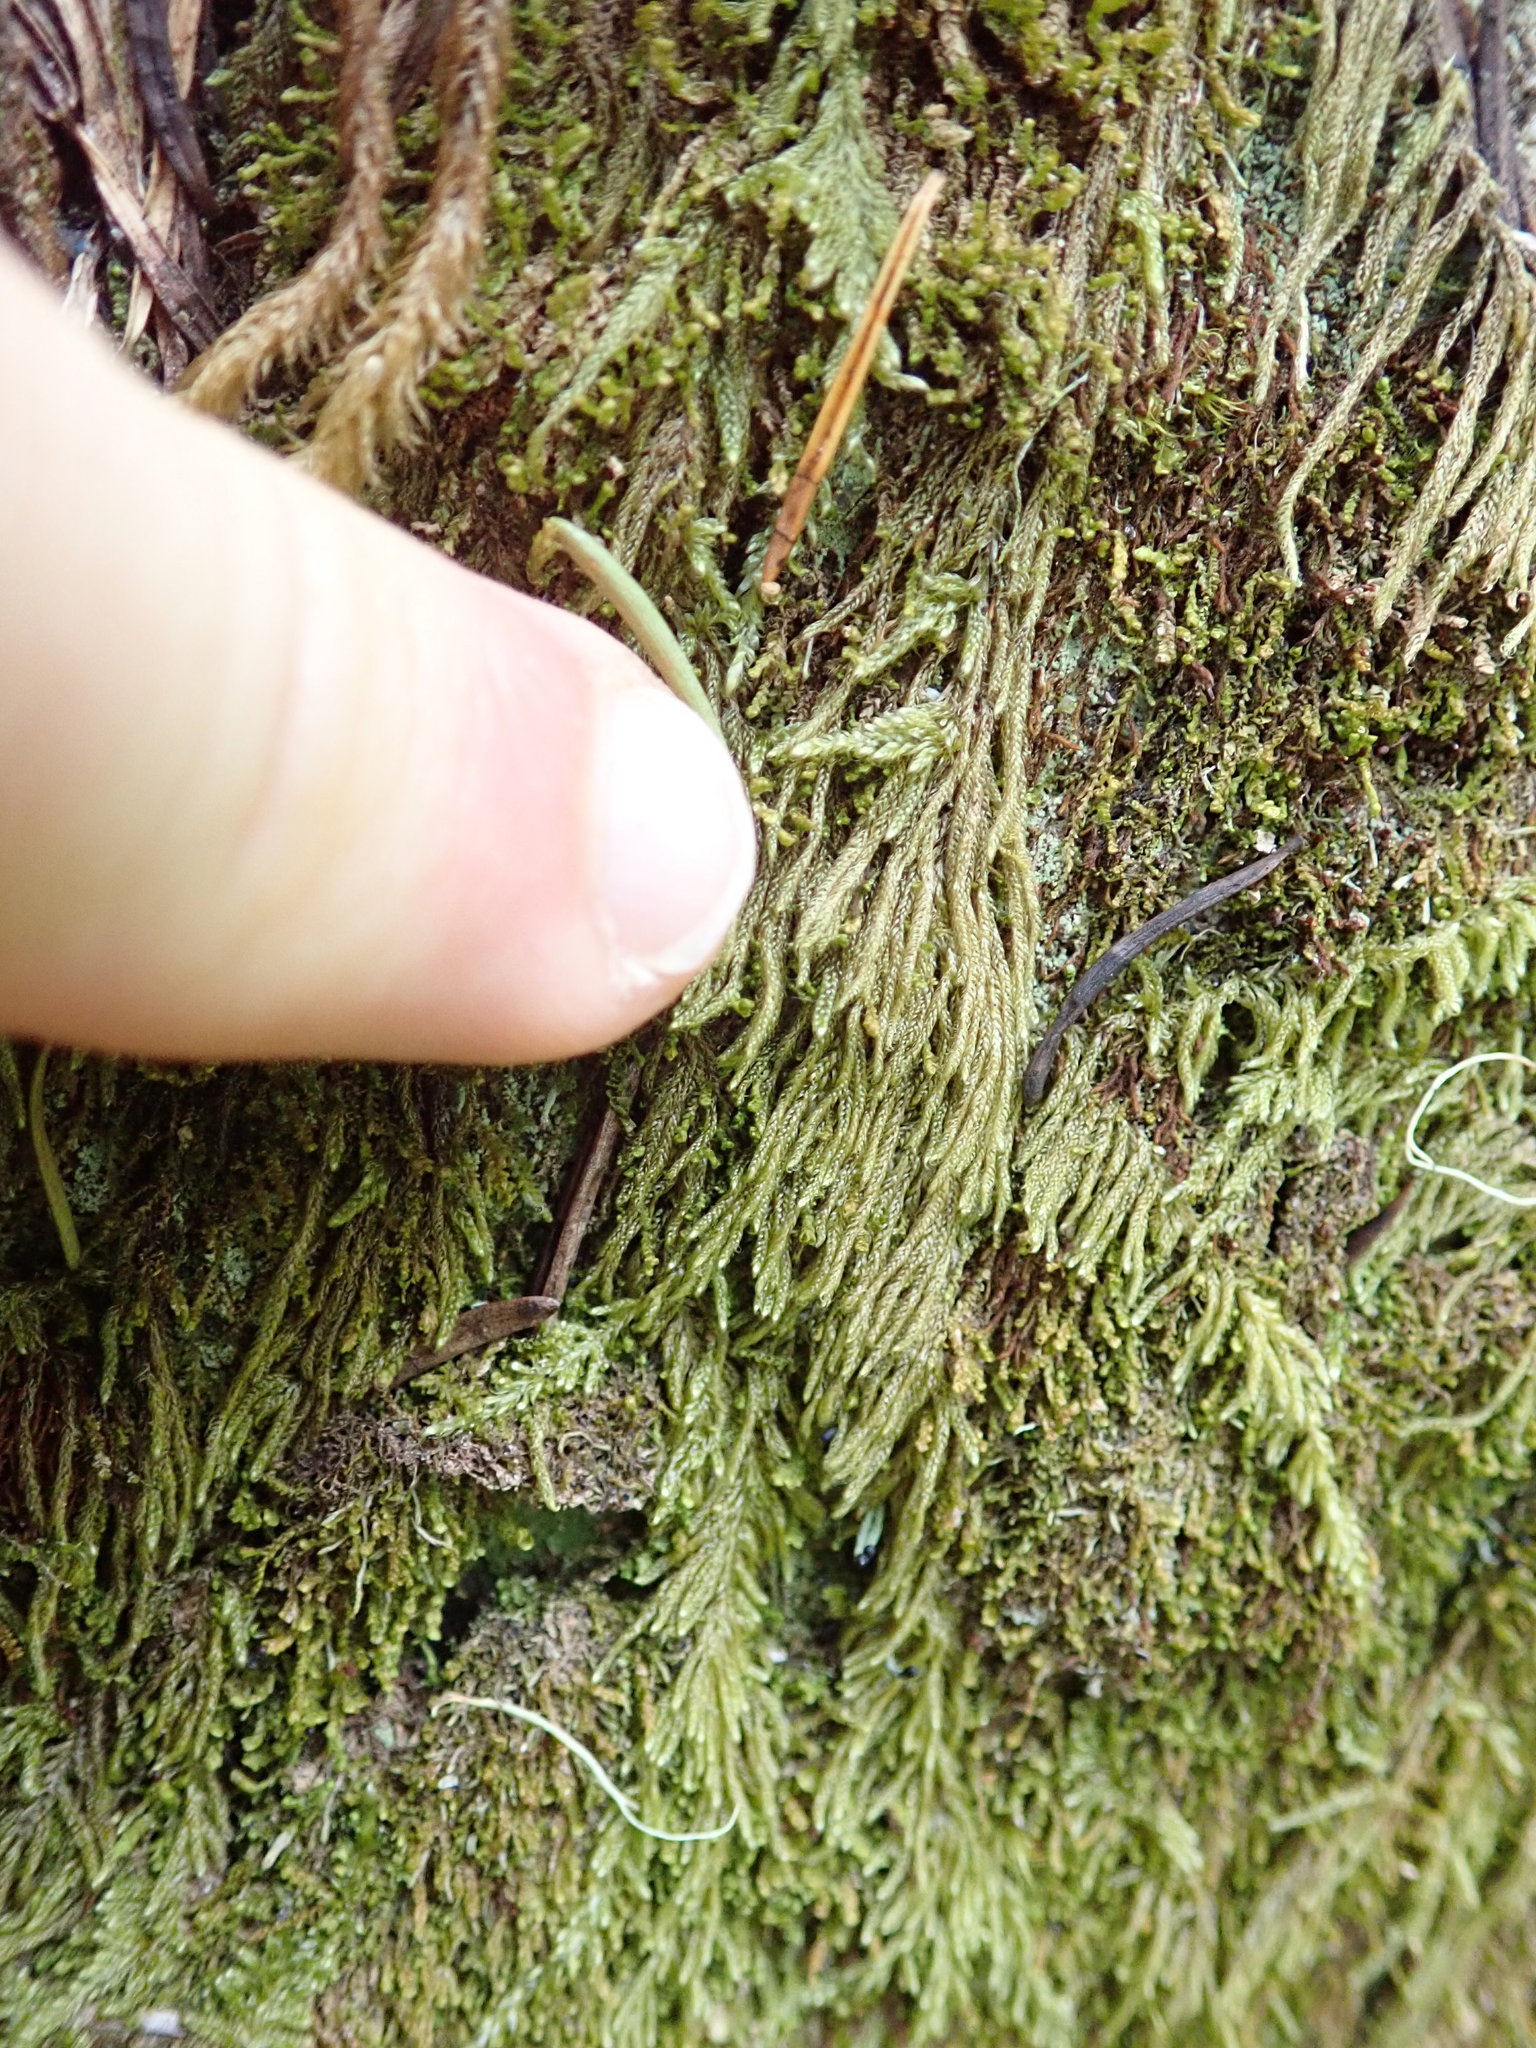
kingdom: Plantae
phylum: Bryophyta
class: Bryopsida
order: Hypnales
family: Pylaisiadelphaceae
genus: Trochophyllohypnum
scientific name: Trochophyllohypnum circinale
